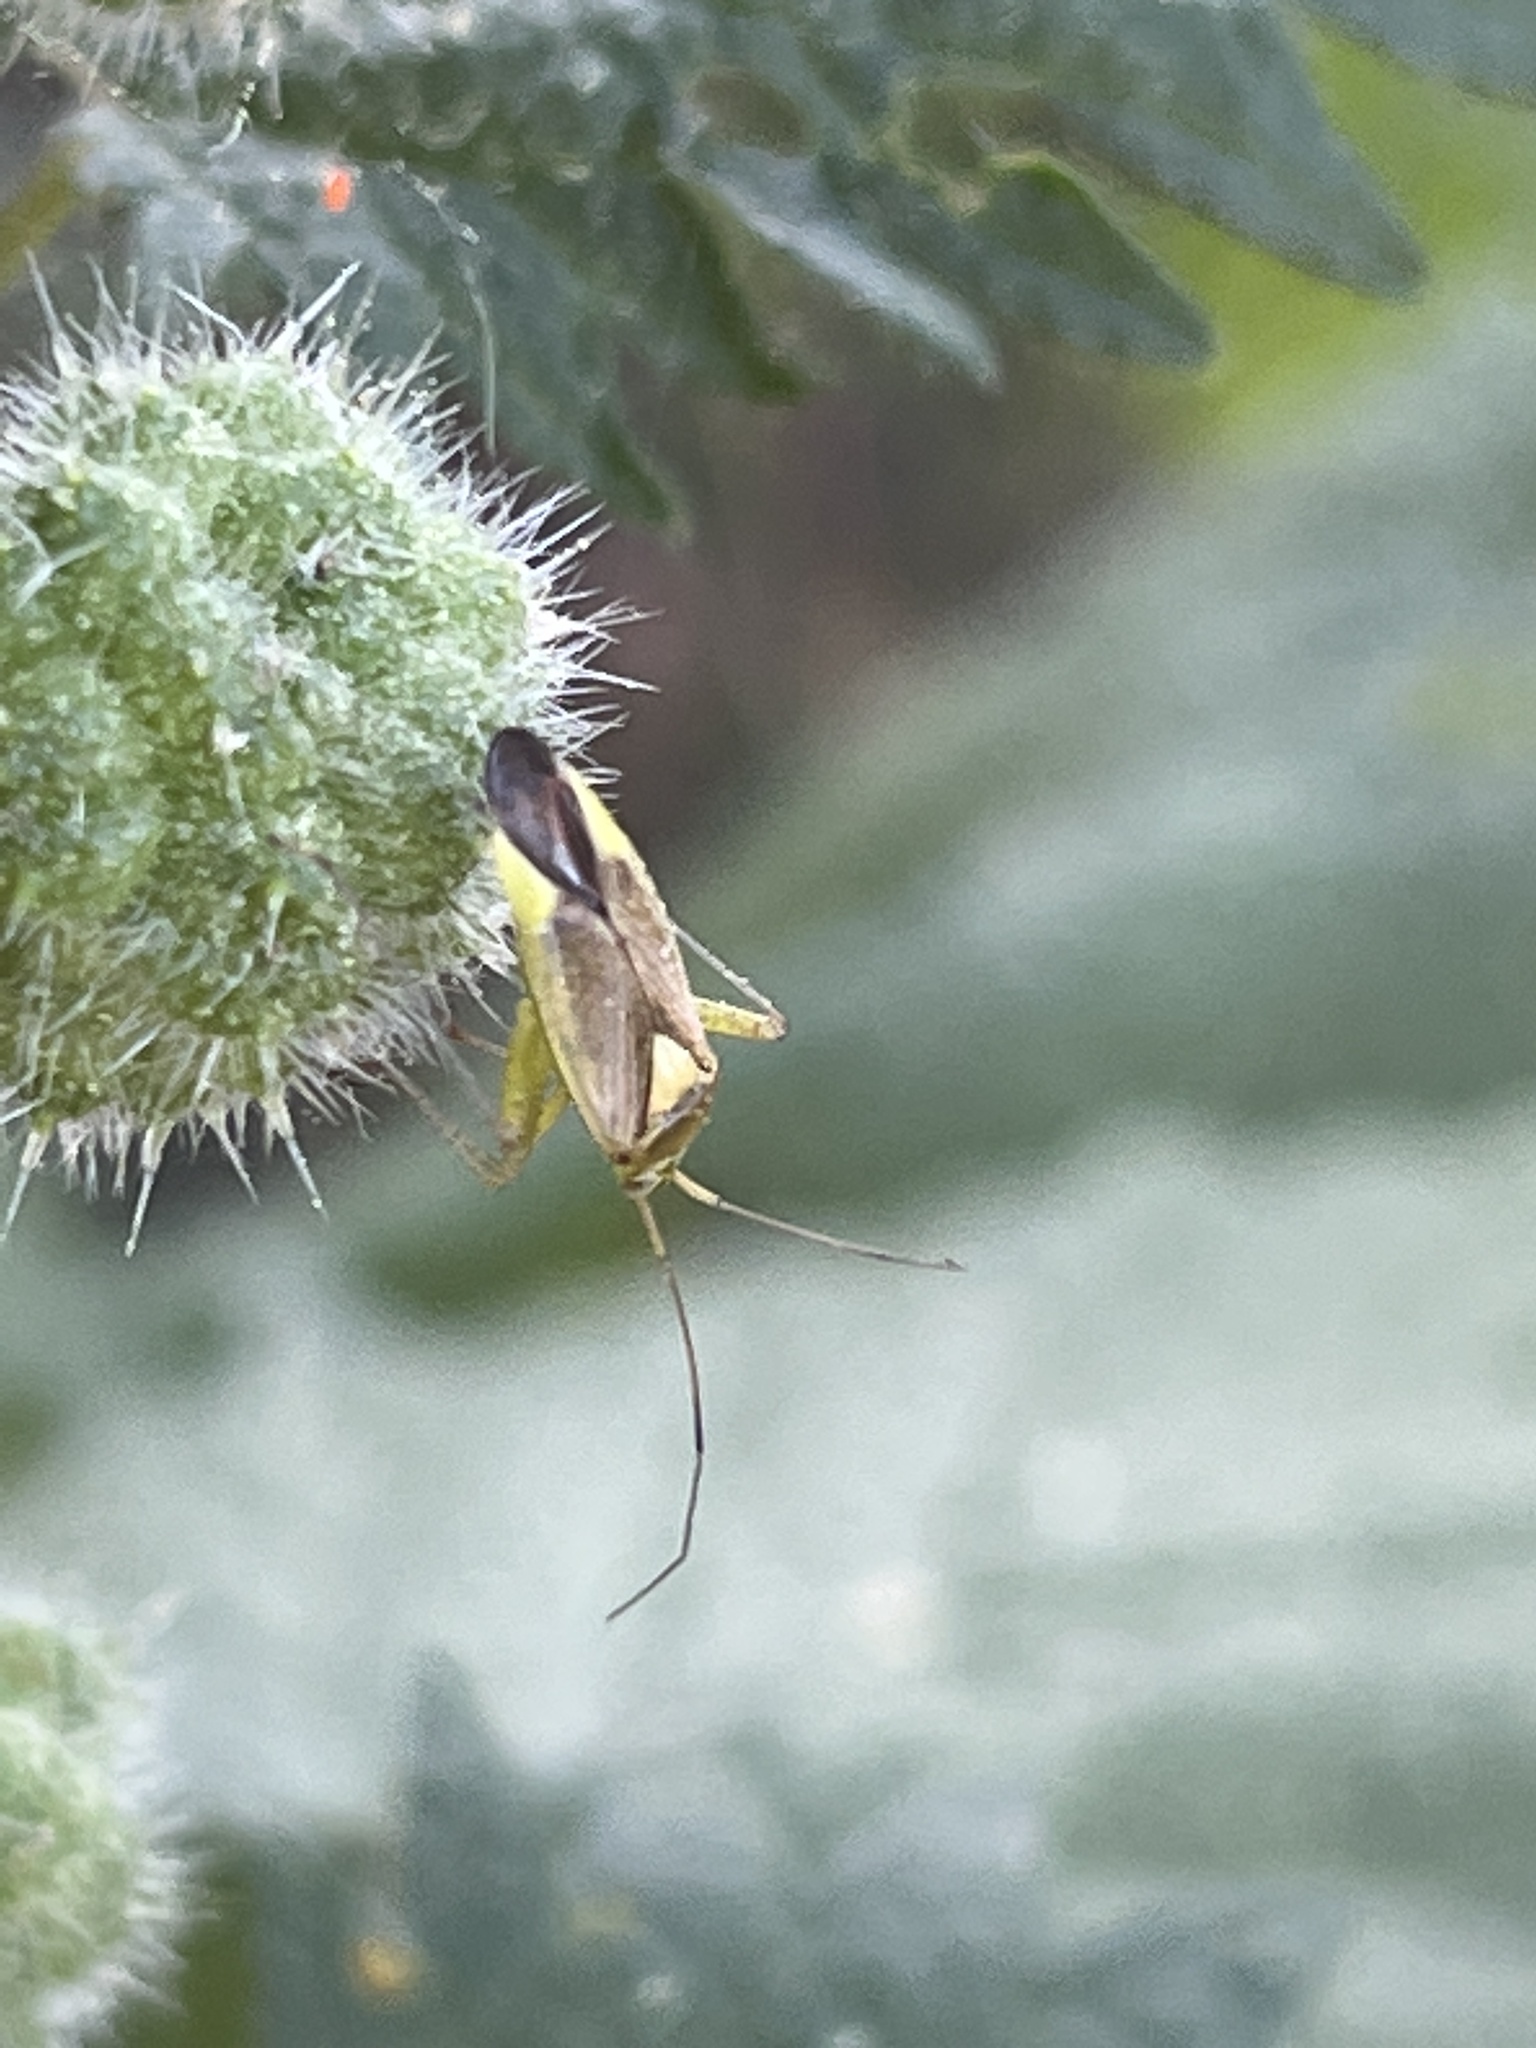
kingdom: Animalia
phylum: Arthropoda
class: Insecta
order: Hemiptera
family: Miridae
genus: Closterotomus
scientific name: Closterotomus trivialis
